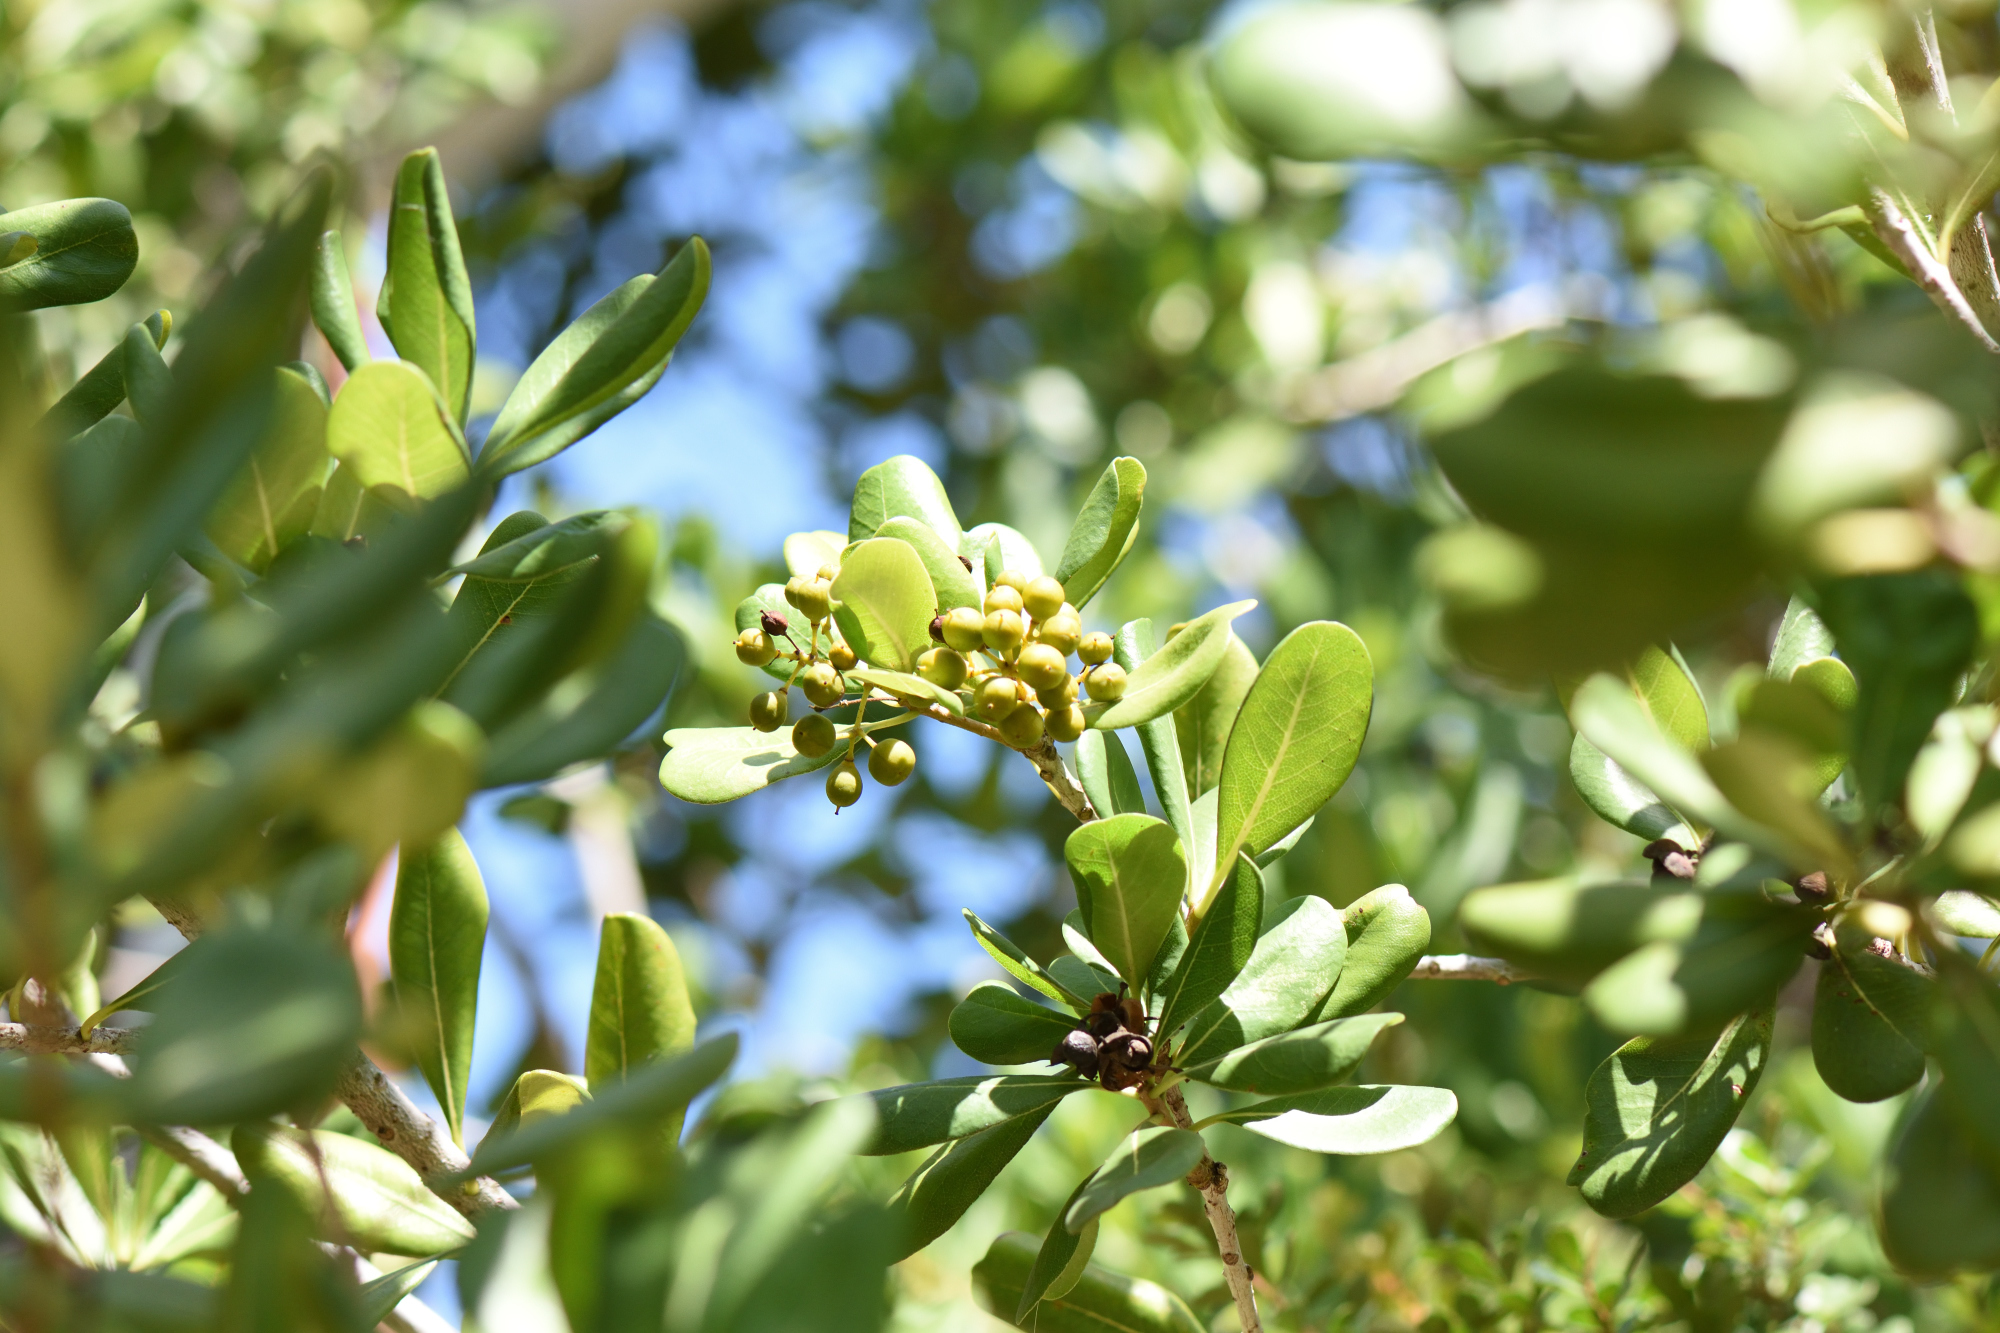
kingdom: Plantae
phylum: Tracheophyta
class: Magnoliopsida
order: Apiales
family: Pittosporaceae
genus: Pittosporum
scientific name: Pittosporum viridiflorum
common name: Cape cheesewood
